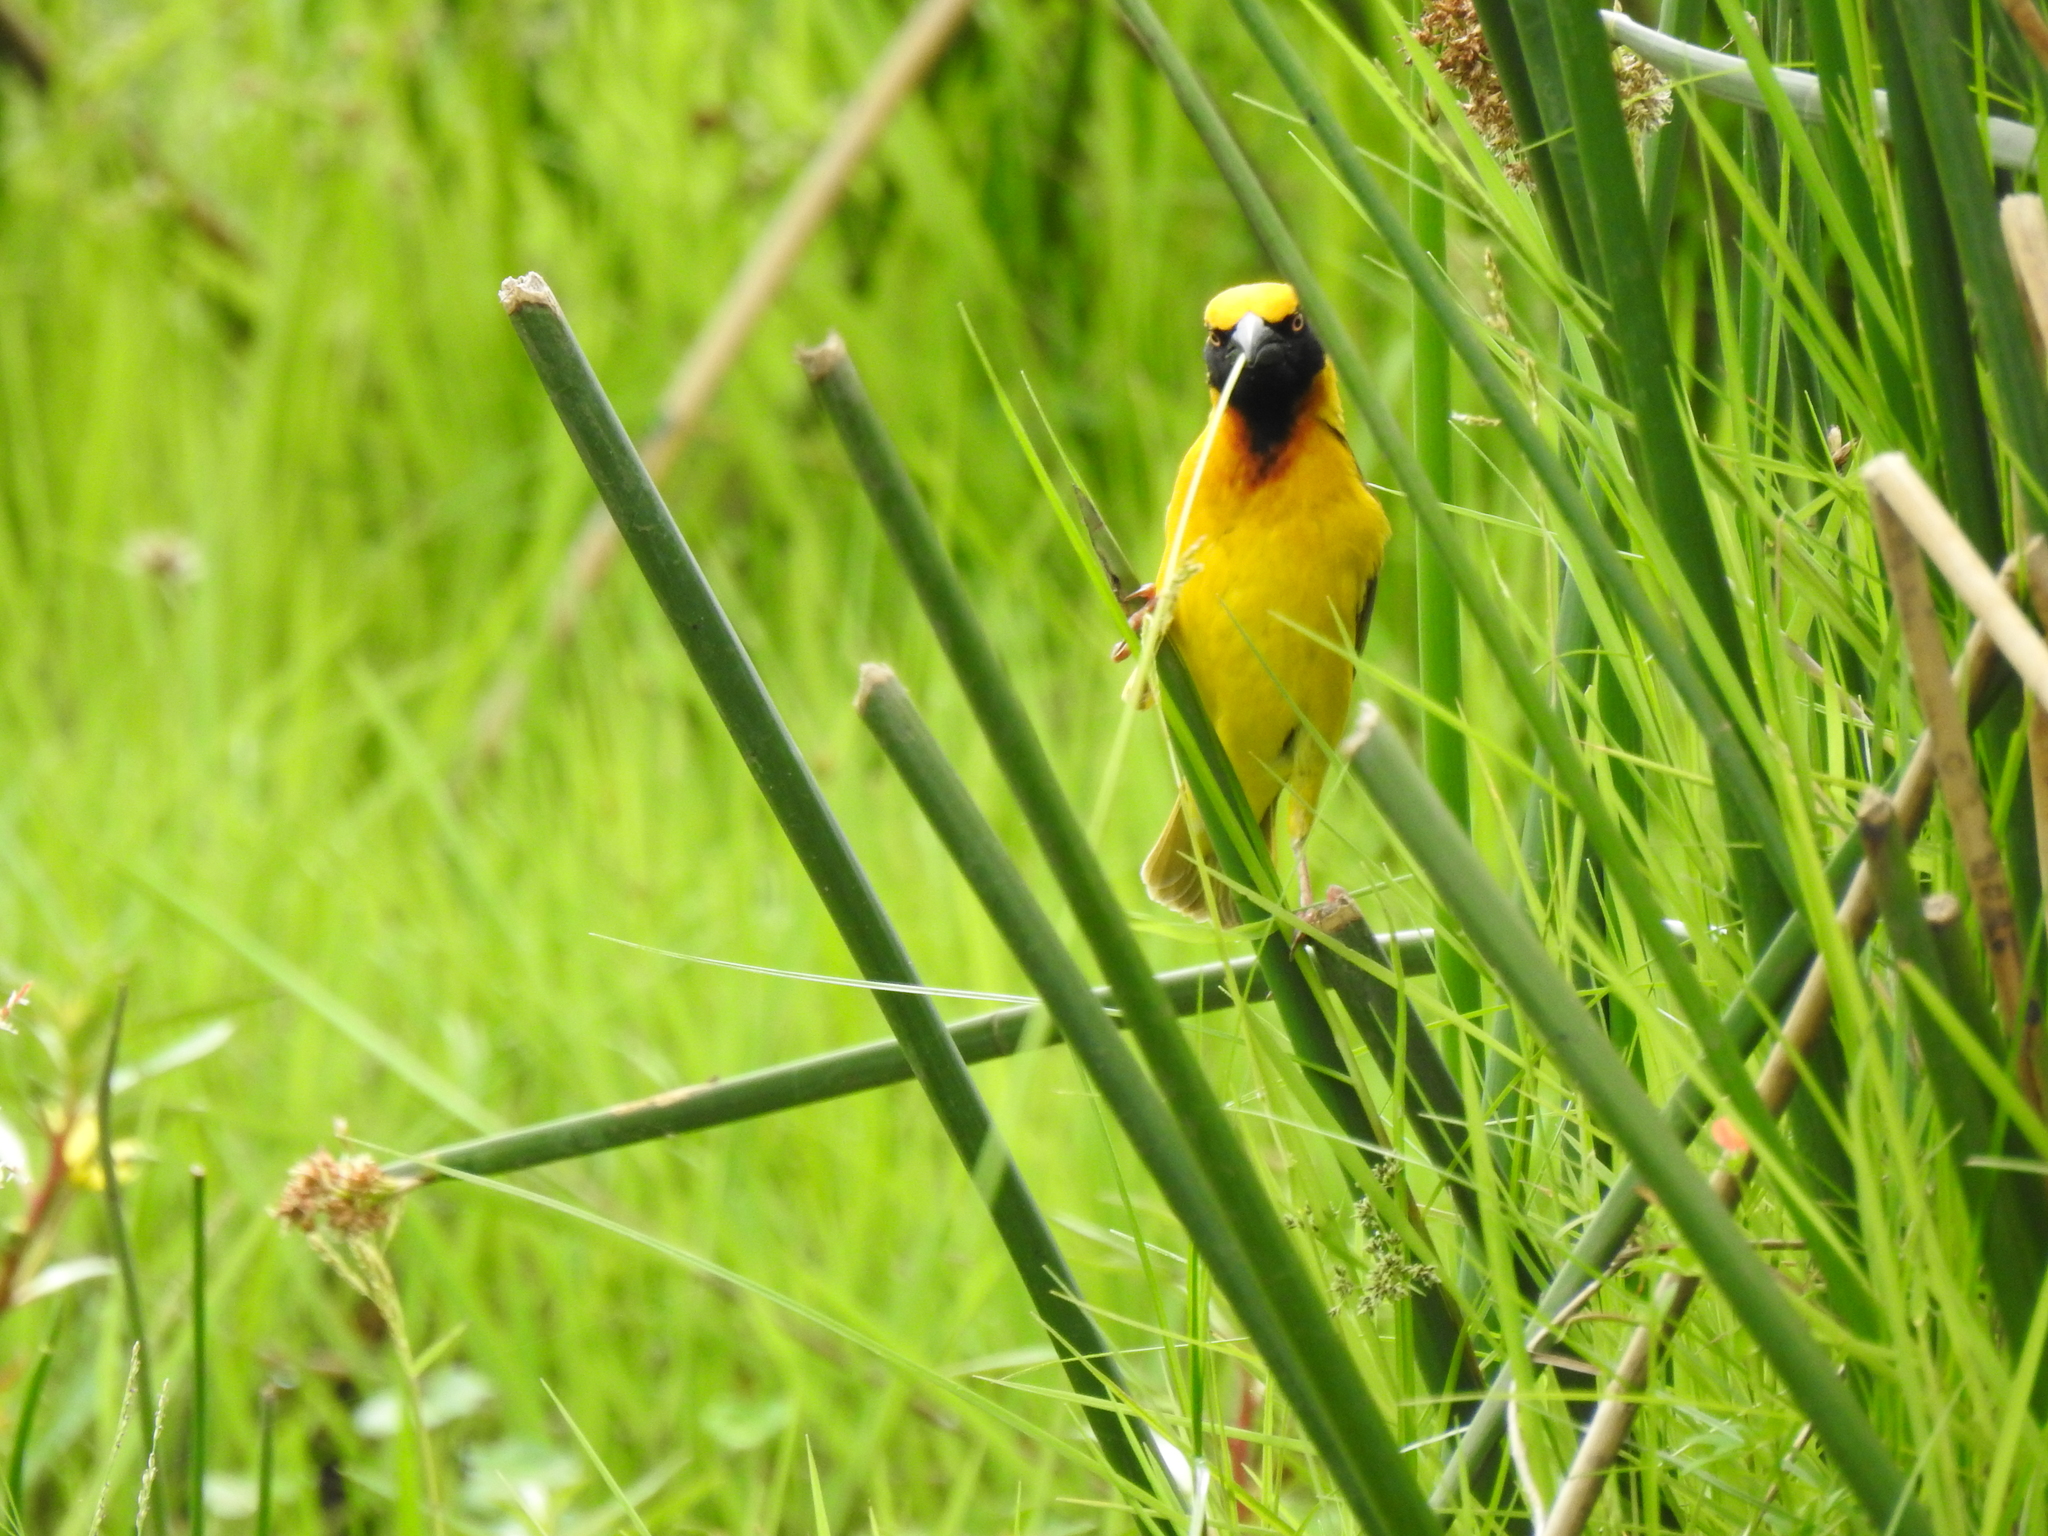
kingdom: Animalia
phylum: Chordata
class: Aves
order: Passeriformes
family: Ploceidae
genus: Ploceus
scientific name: Ploceus spekei
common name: Speke's weaver
